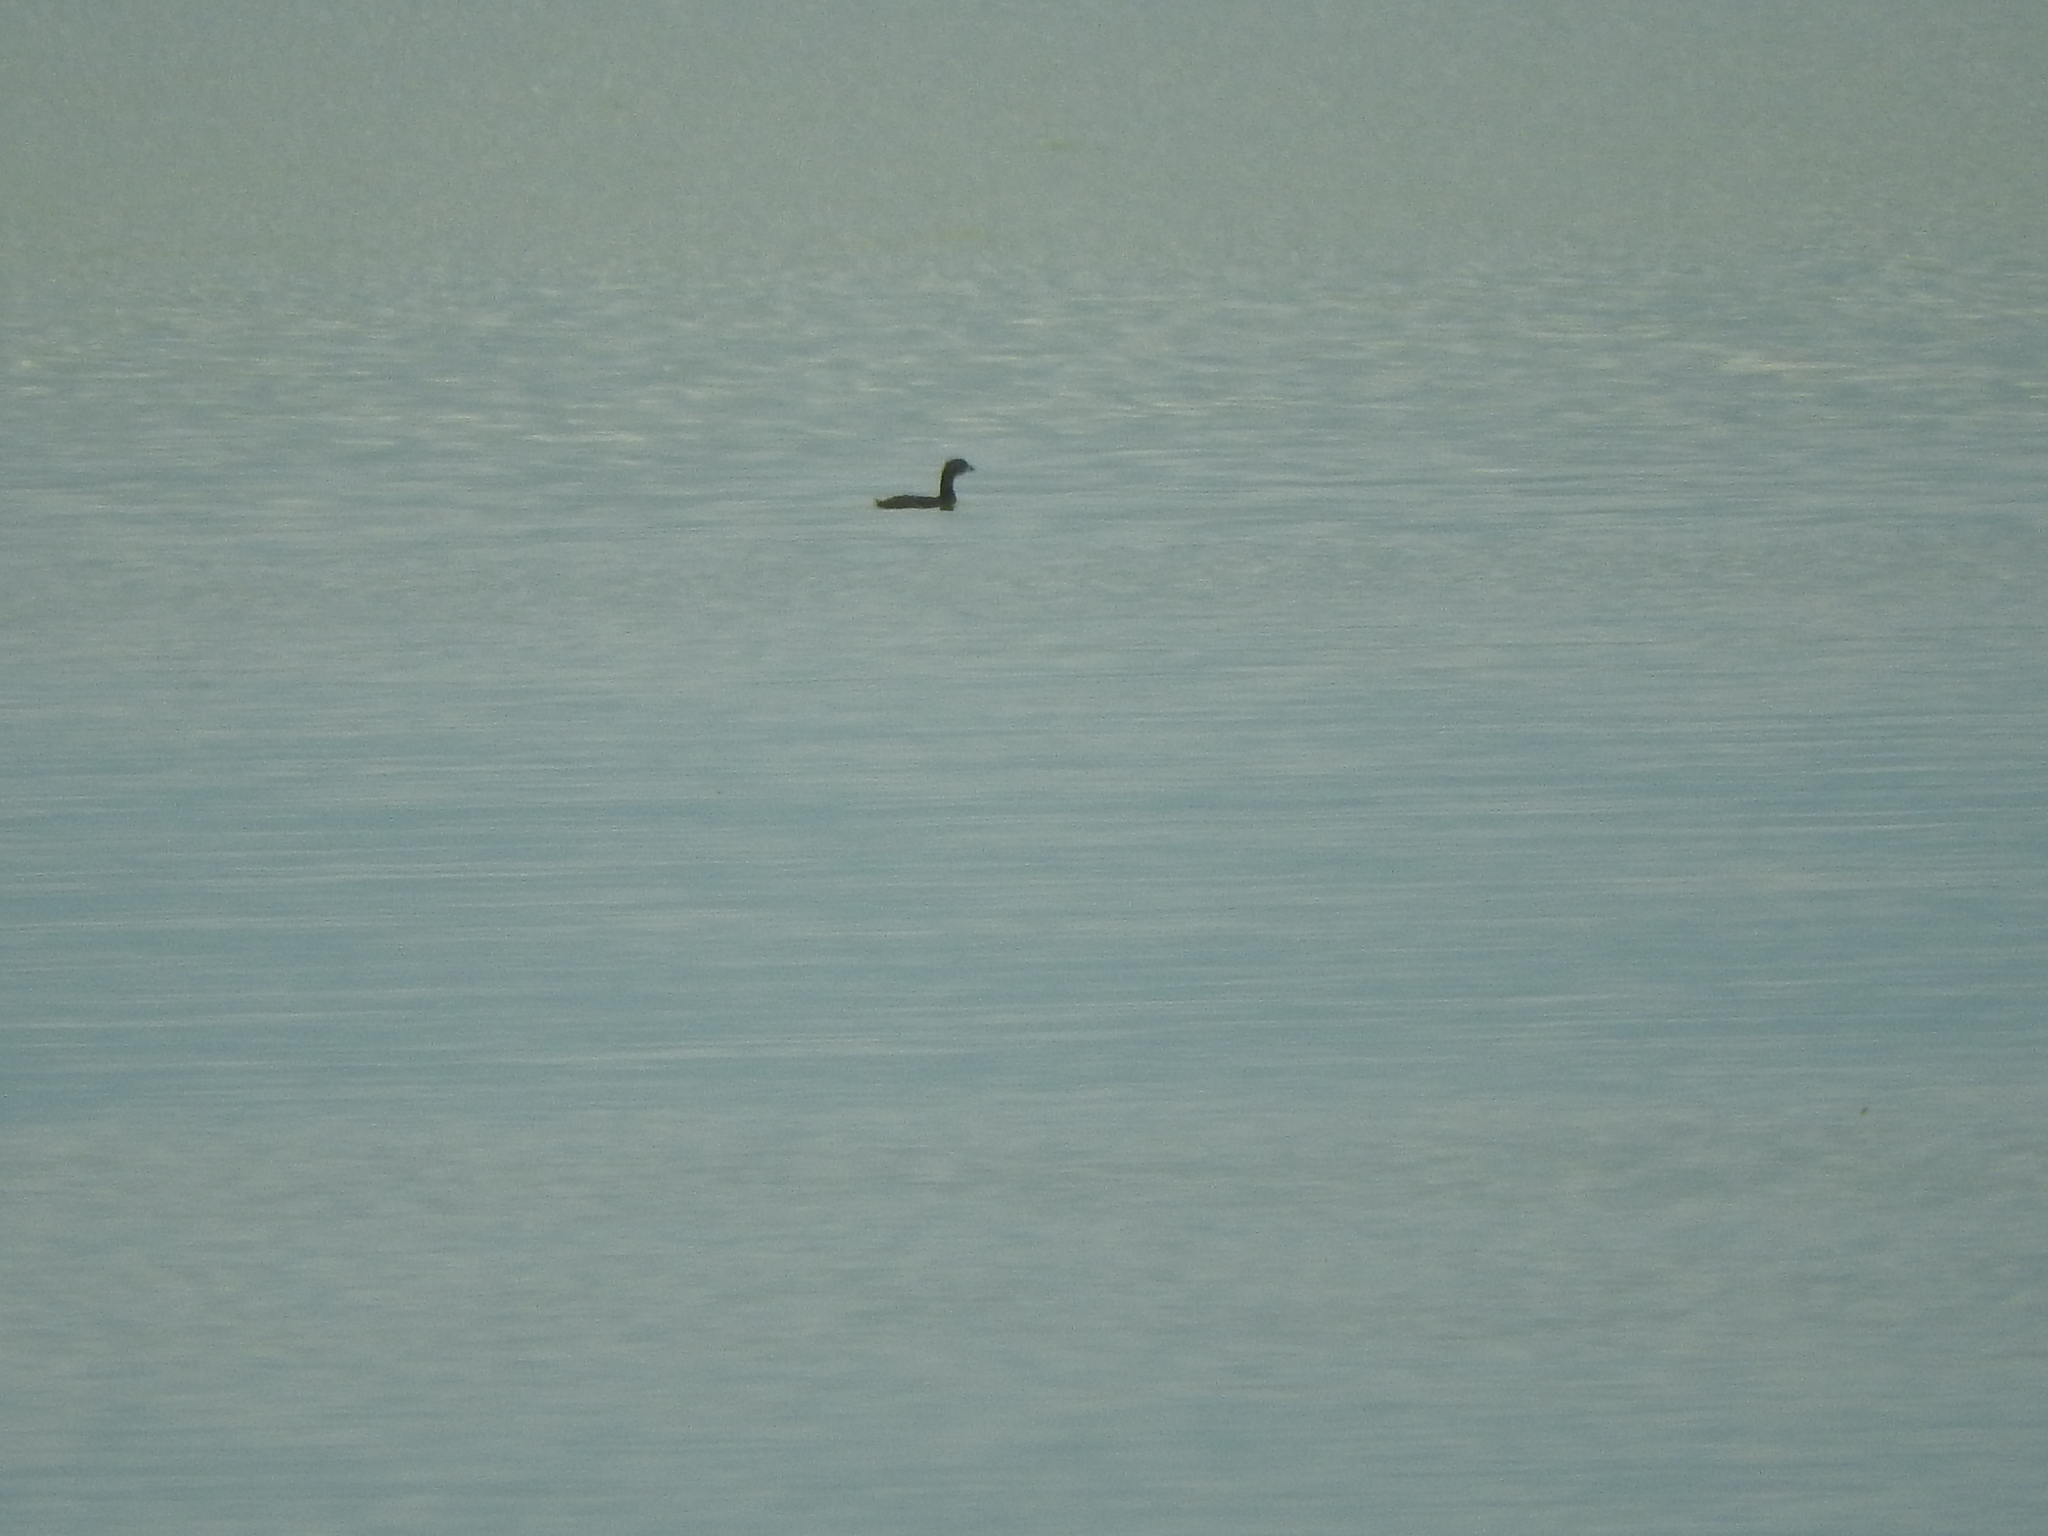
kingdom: Animalia
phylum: Chordata
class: Aves
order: Podicipediformes
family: Podicipedidae
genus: Podilymbus
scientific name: Podilymbus podiceps
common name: Pied-billed grebe
